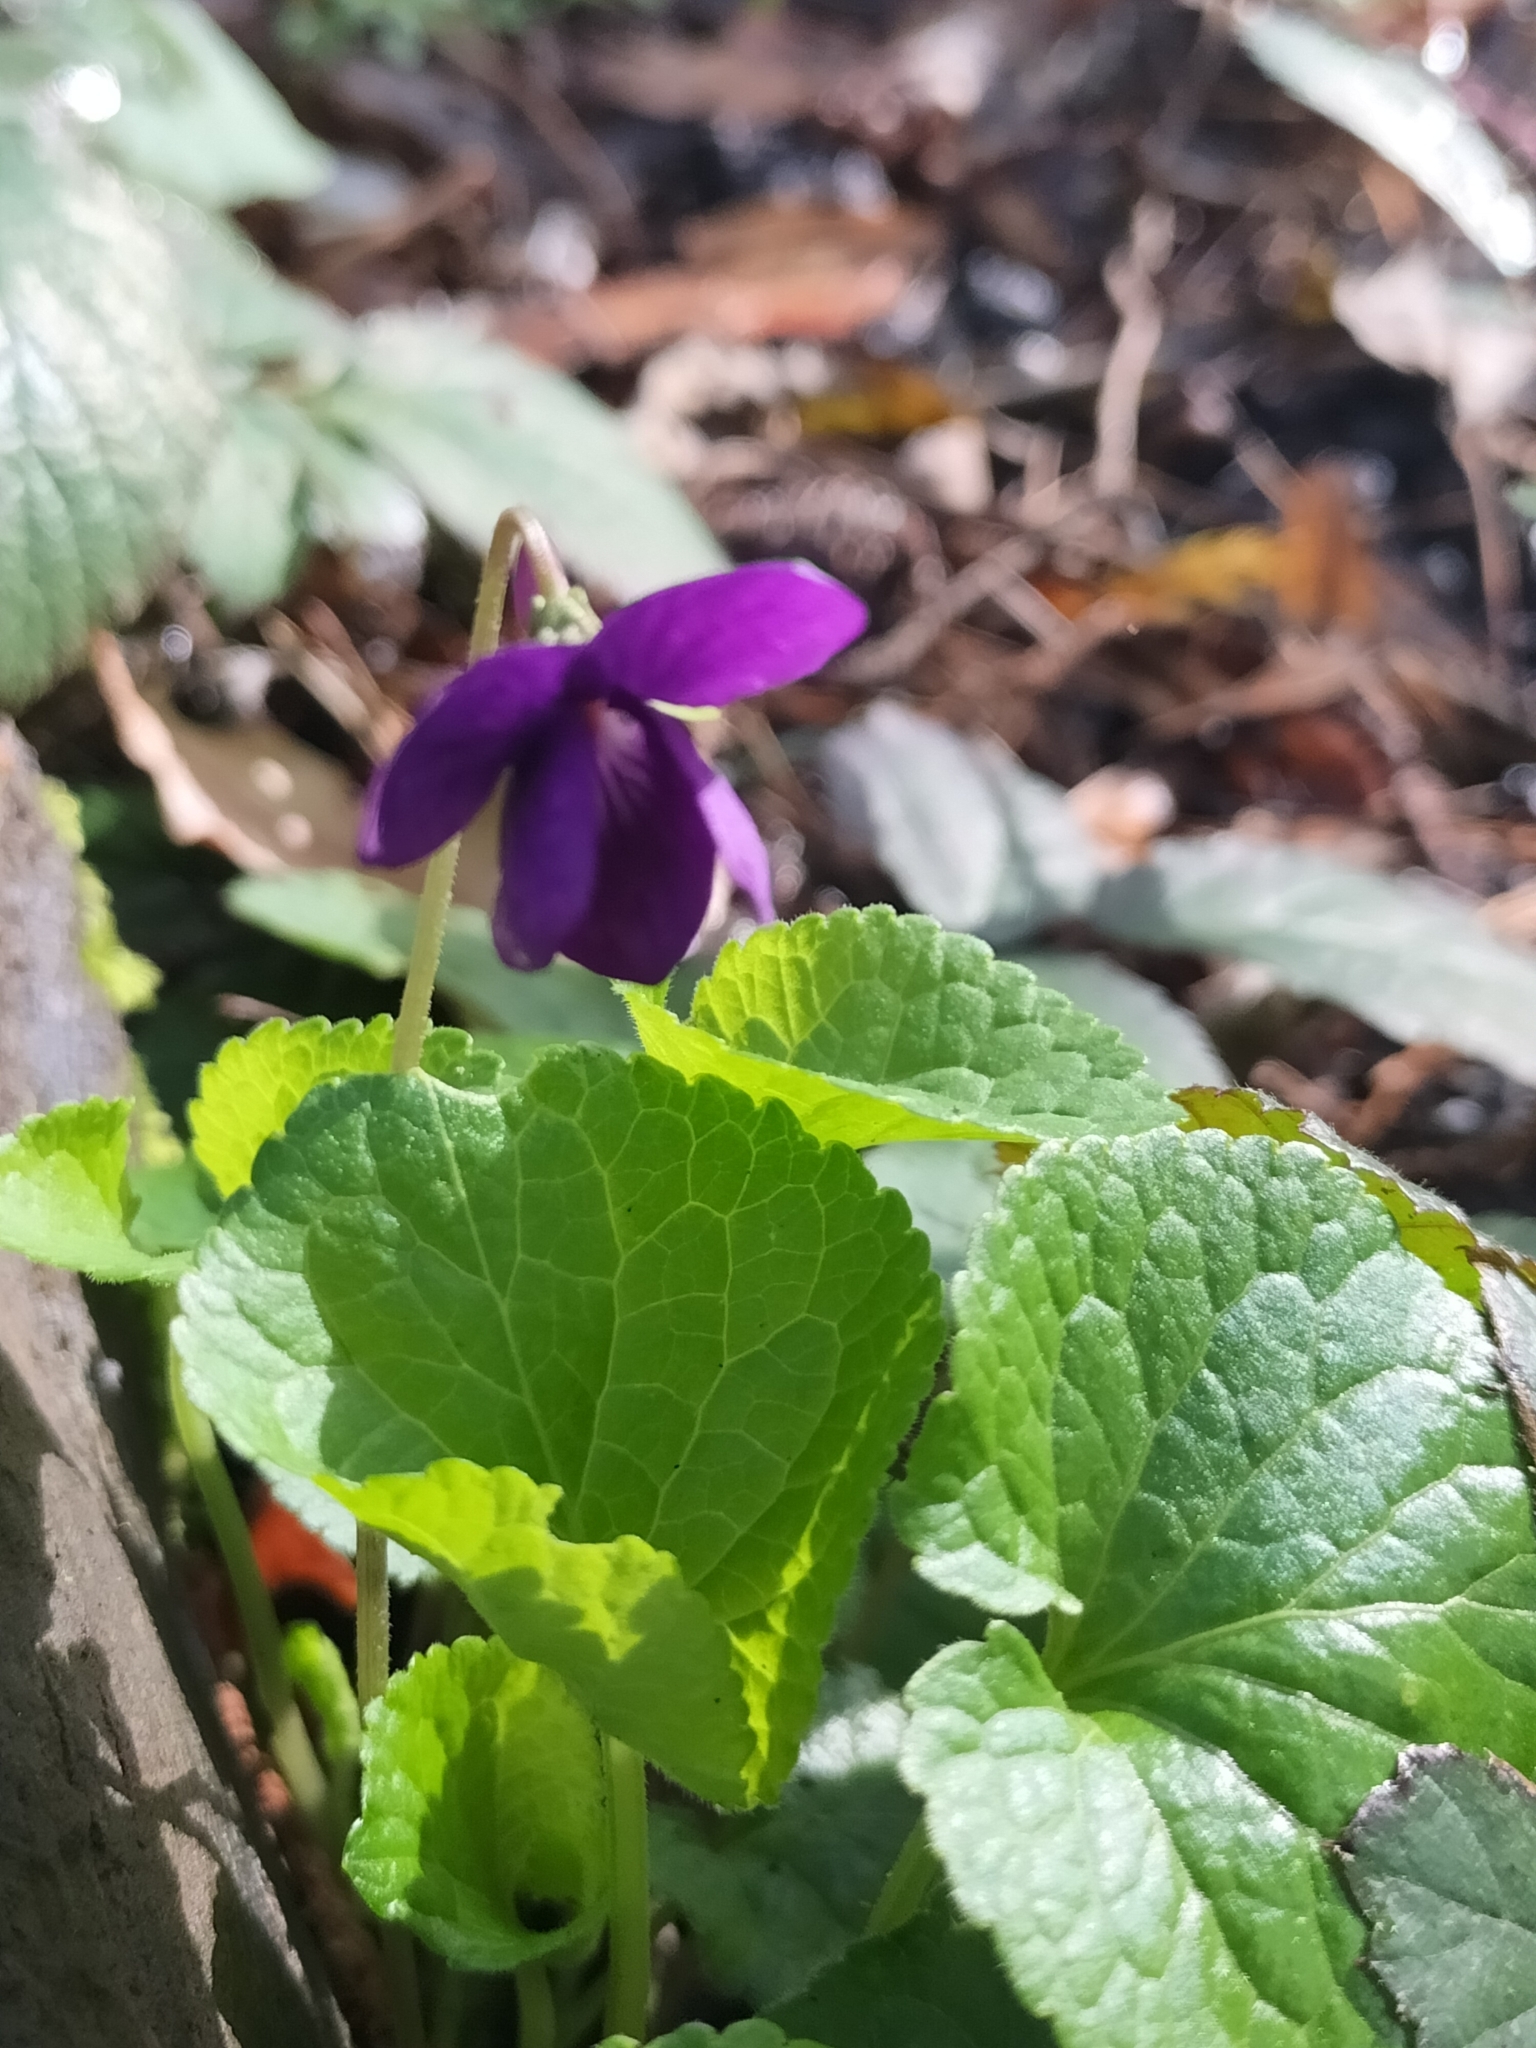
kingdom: Plantae
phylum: Tracheophyta
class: Magnoliopsida
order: Malpighiales
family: Violaceae
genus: Viola
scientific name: Viola odorata
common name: Sweet violet
